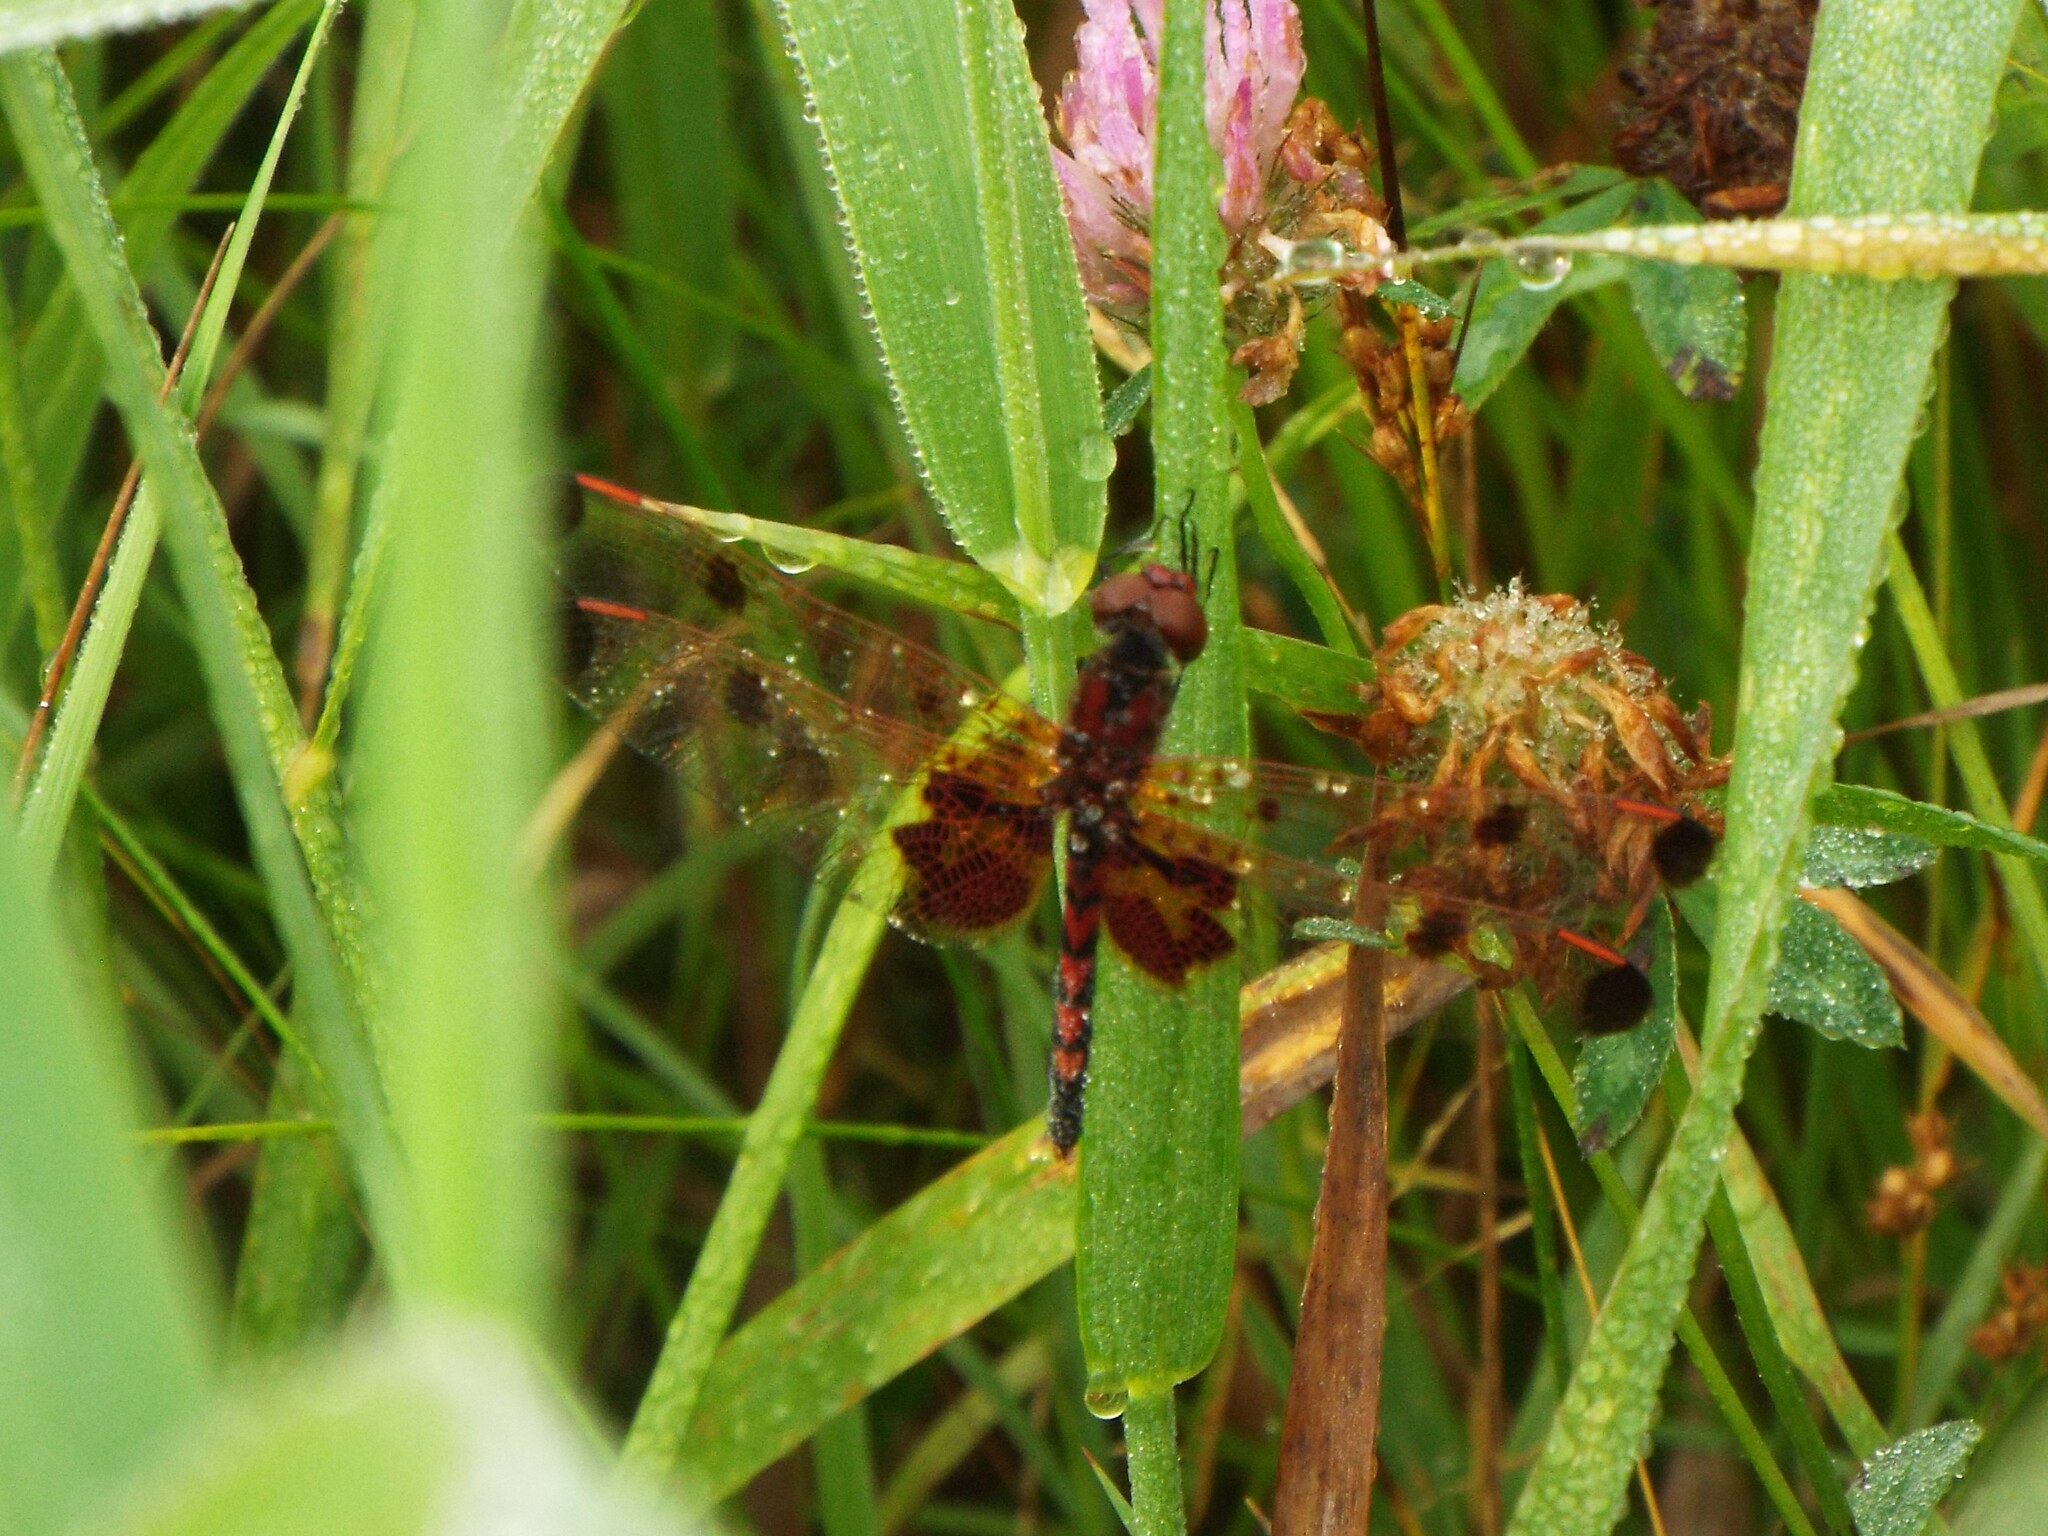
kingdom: Animalia
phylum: Arthropoda
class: Insecta
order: Odonata
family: Libellulidae
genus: Celithemis
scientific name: Celithemis elisa
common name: Calico pennant
